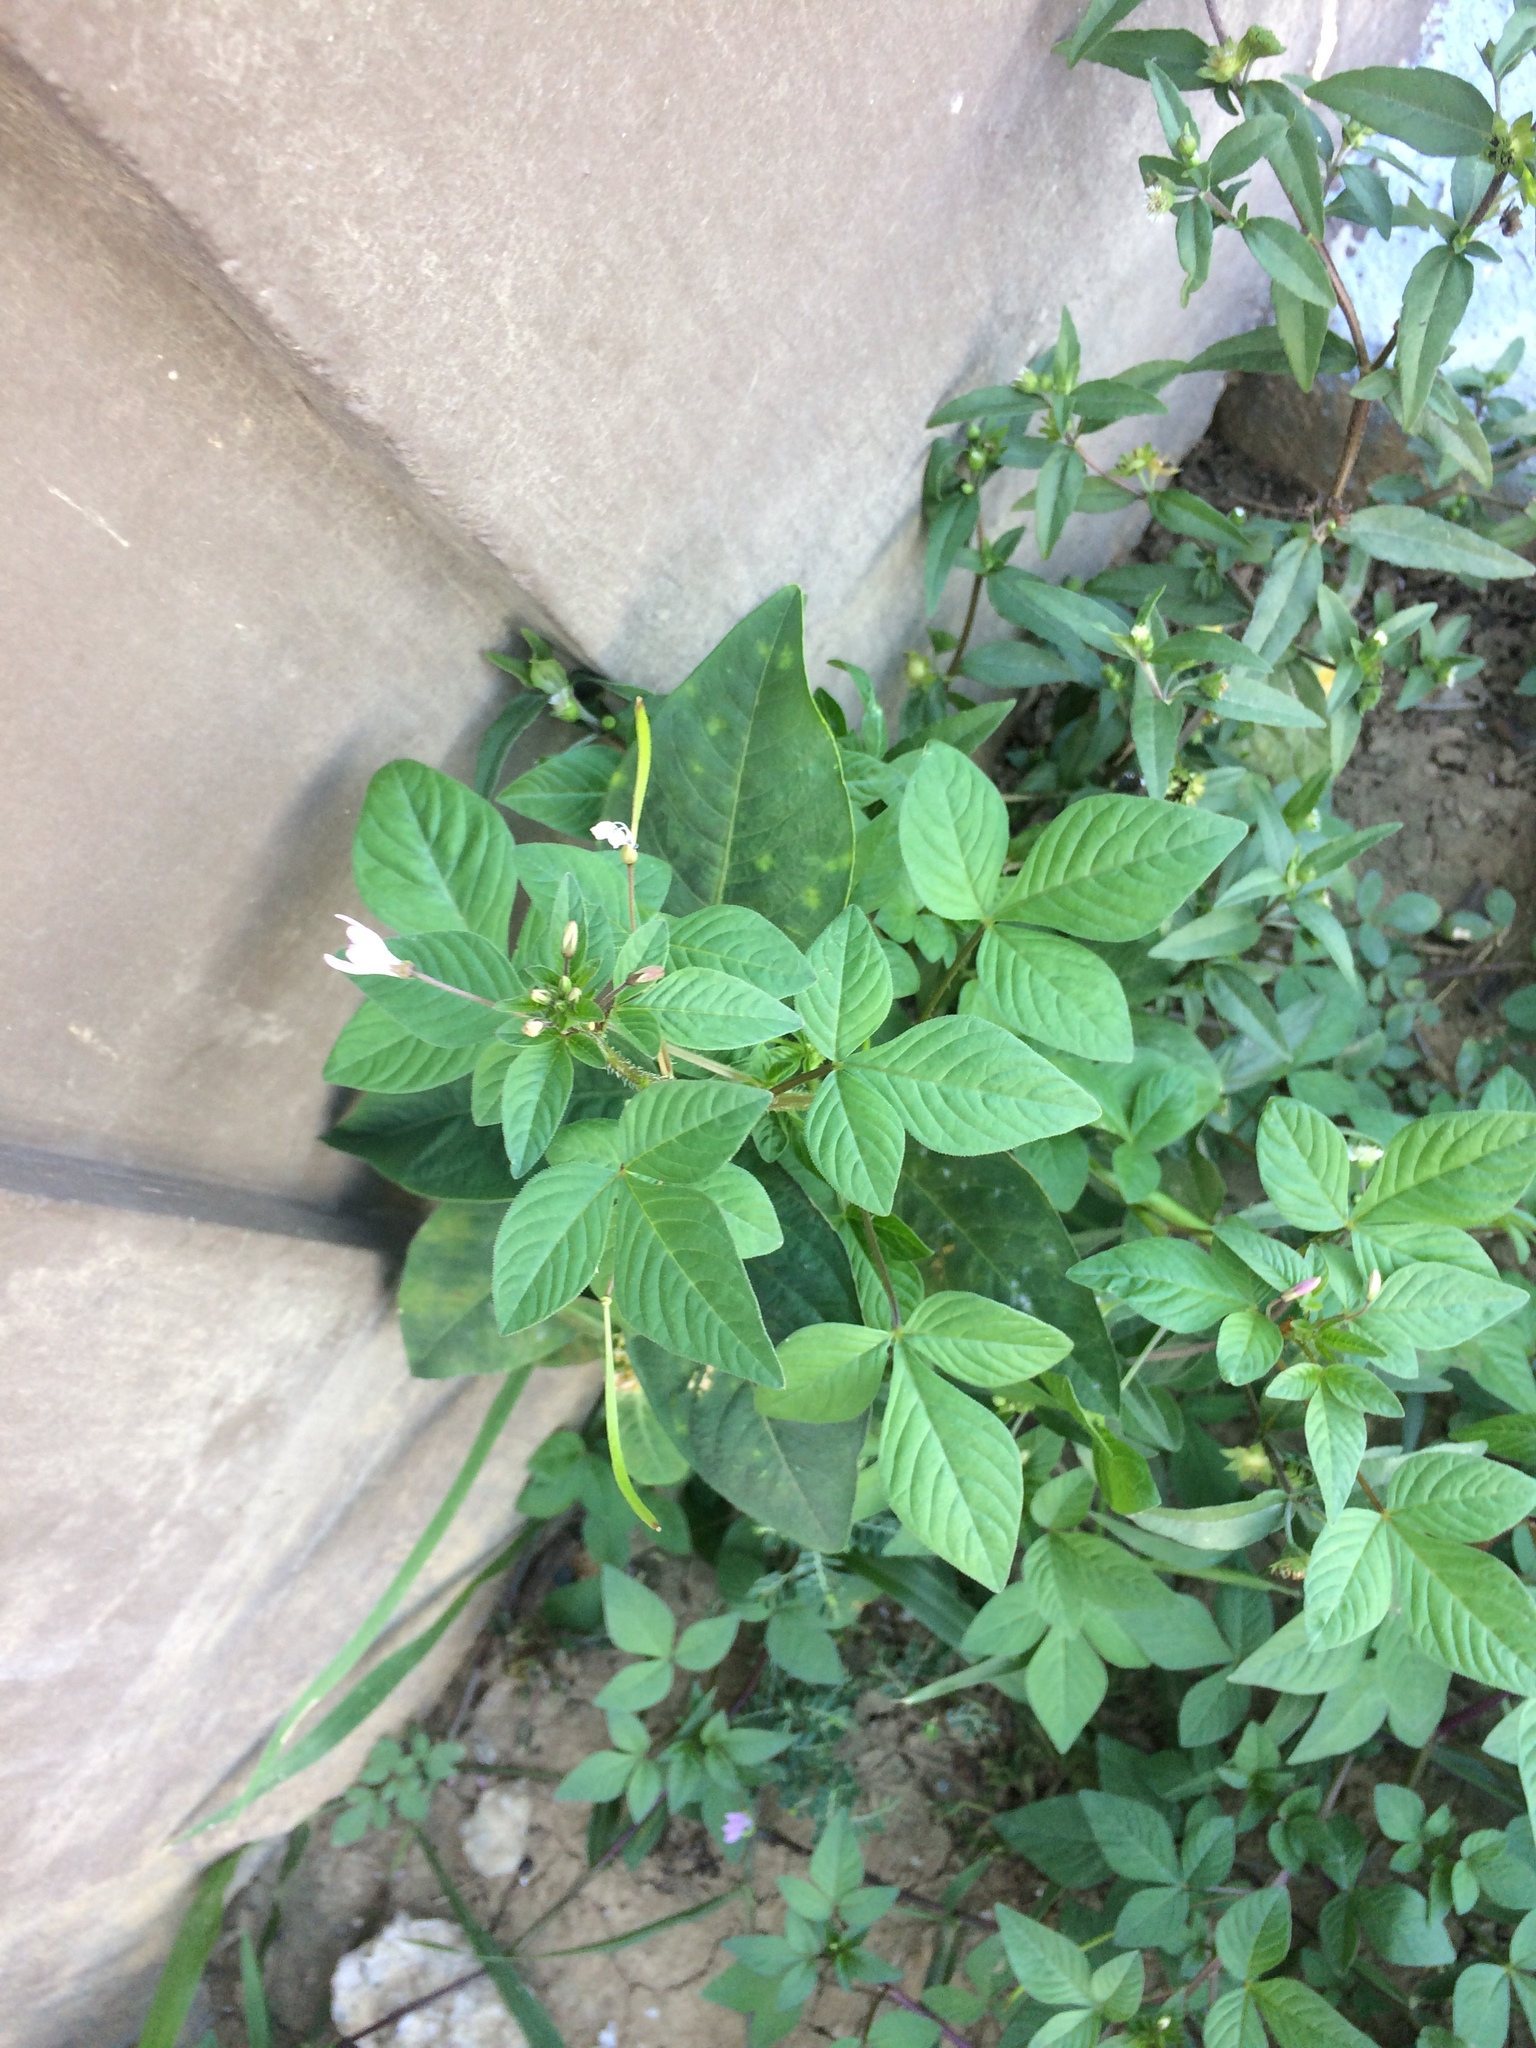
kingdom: Plantae
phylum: Tracheophyta
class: Magnoliopsida
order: Brassicales
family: Cleomaceae
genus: Sieruela
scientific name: Sieruela rutidosperma
